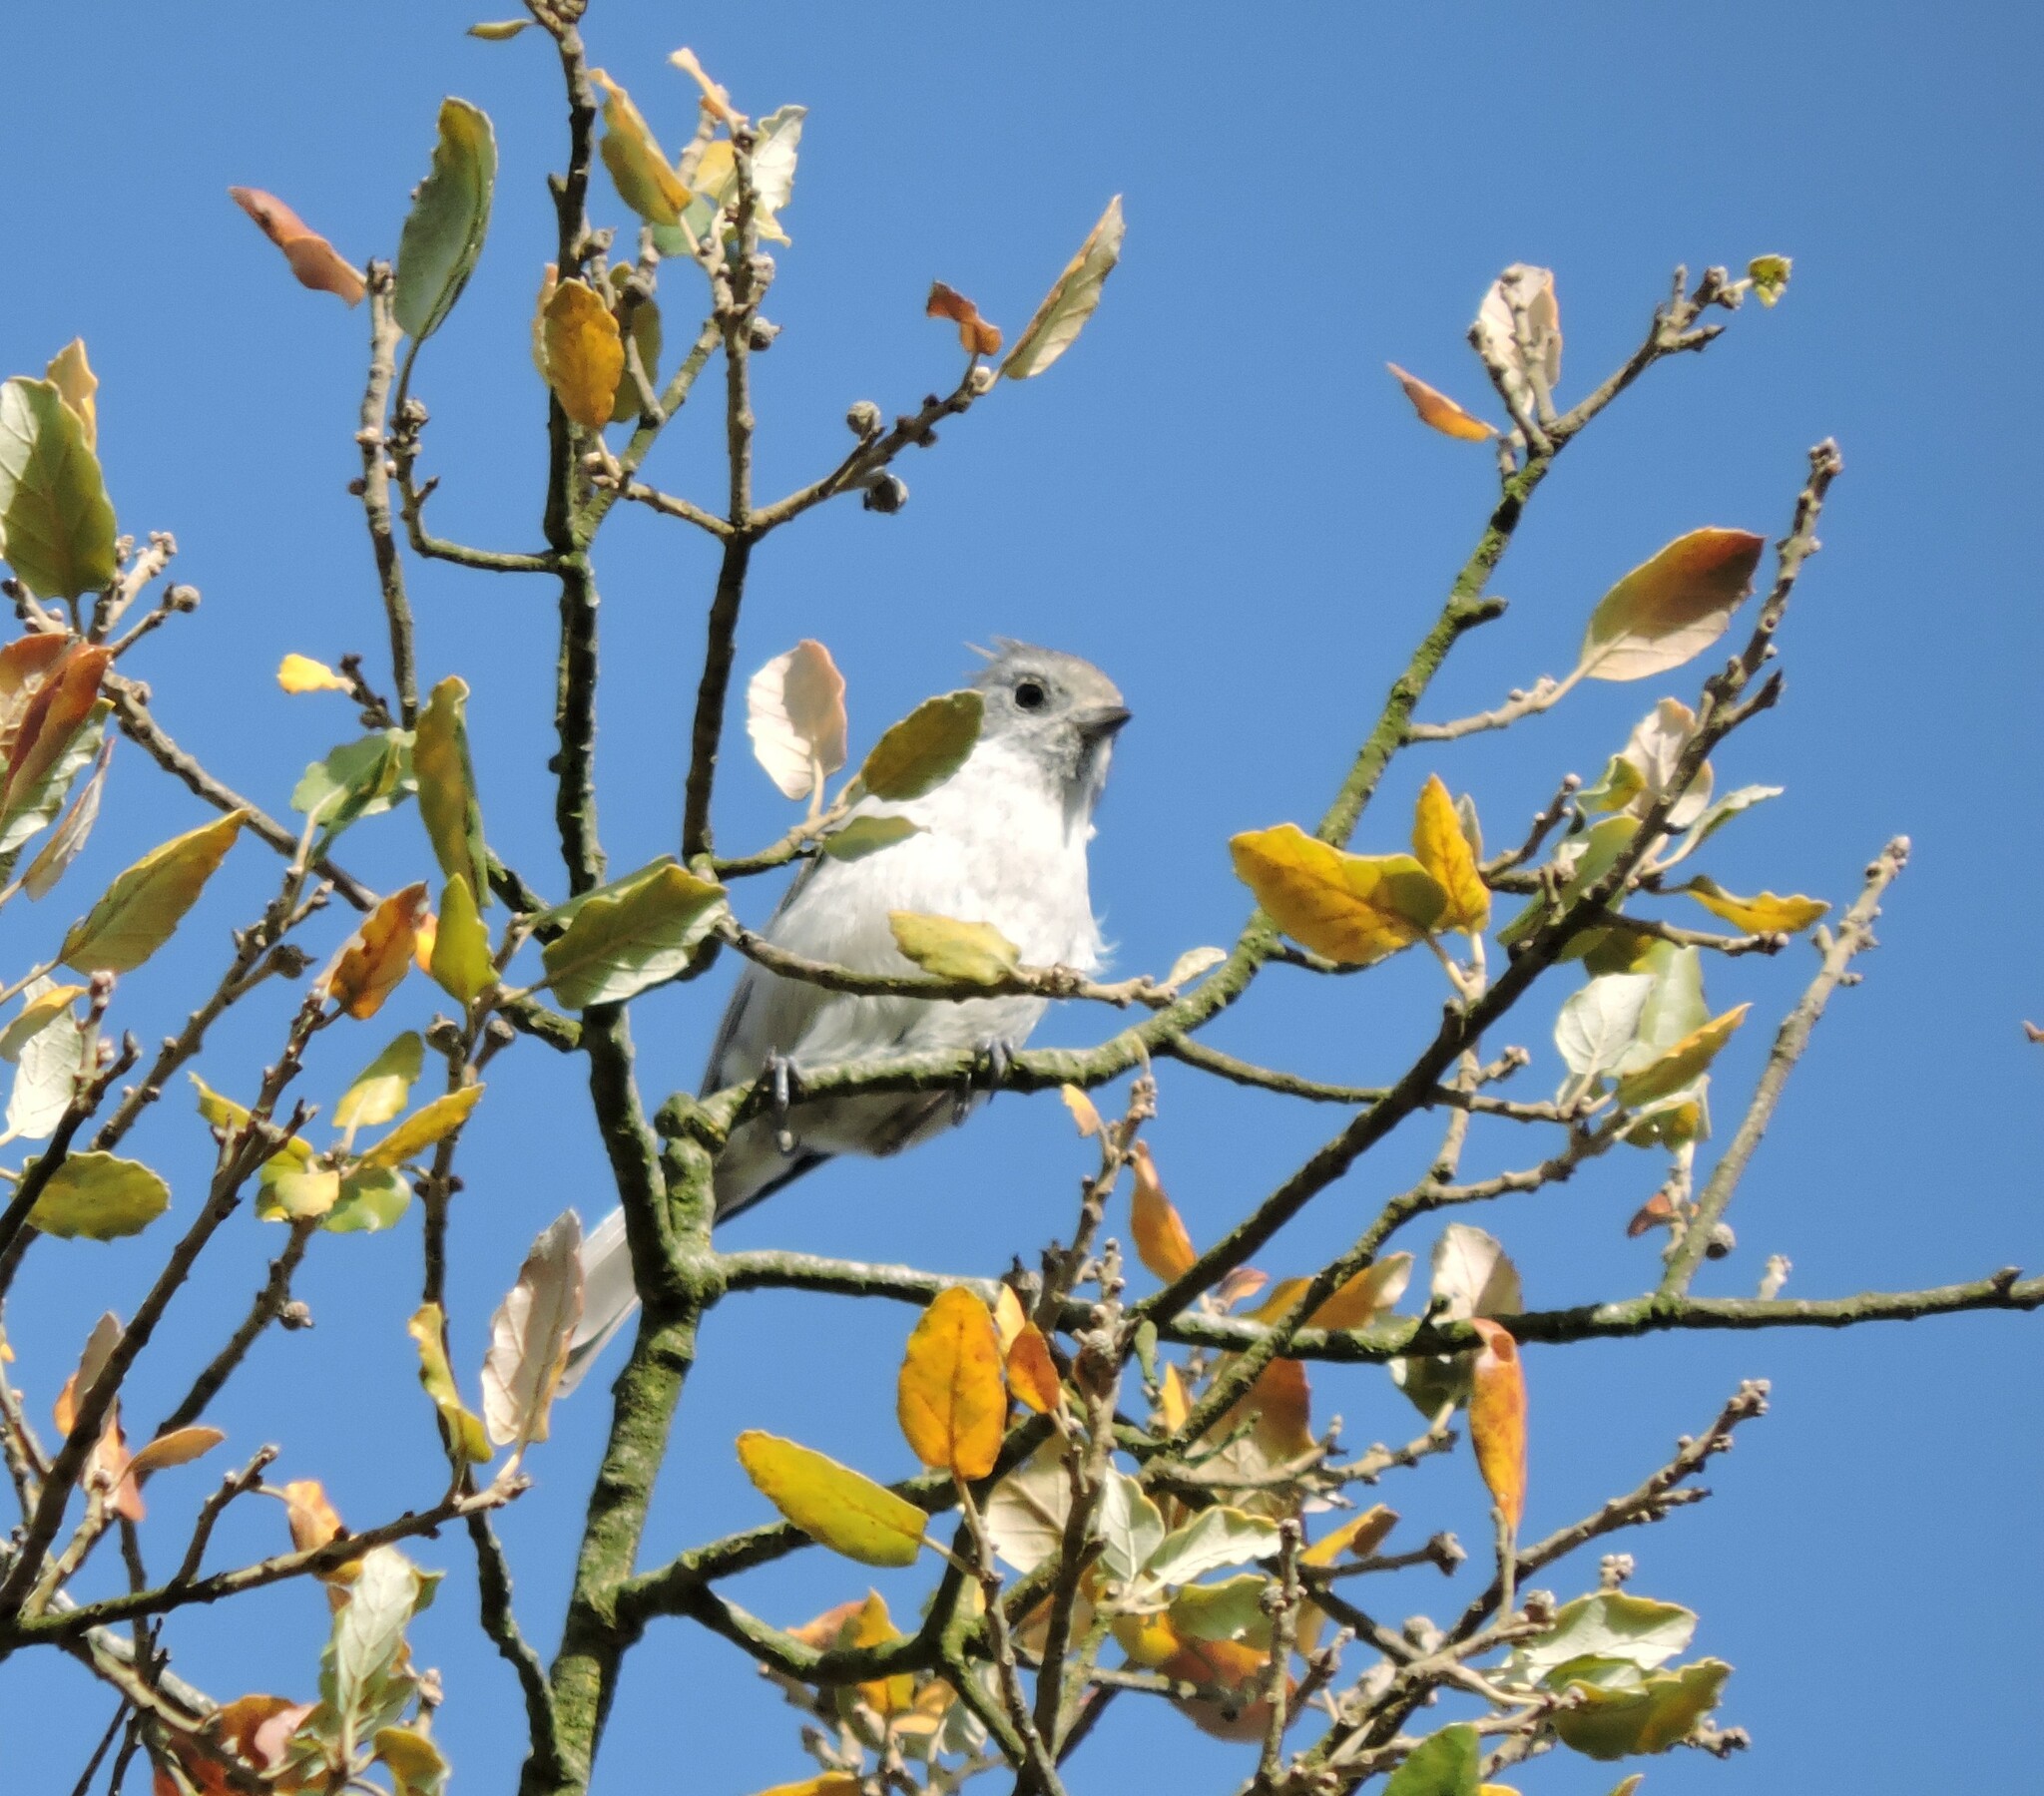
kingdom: Animalia
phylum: Chordata
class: Aves
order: Passeriformes
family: Paridae
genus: Baeolophus
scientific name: Baeolophus inornatus
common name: Oak titmouse
